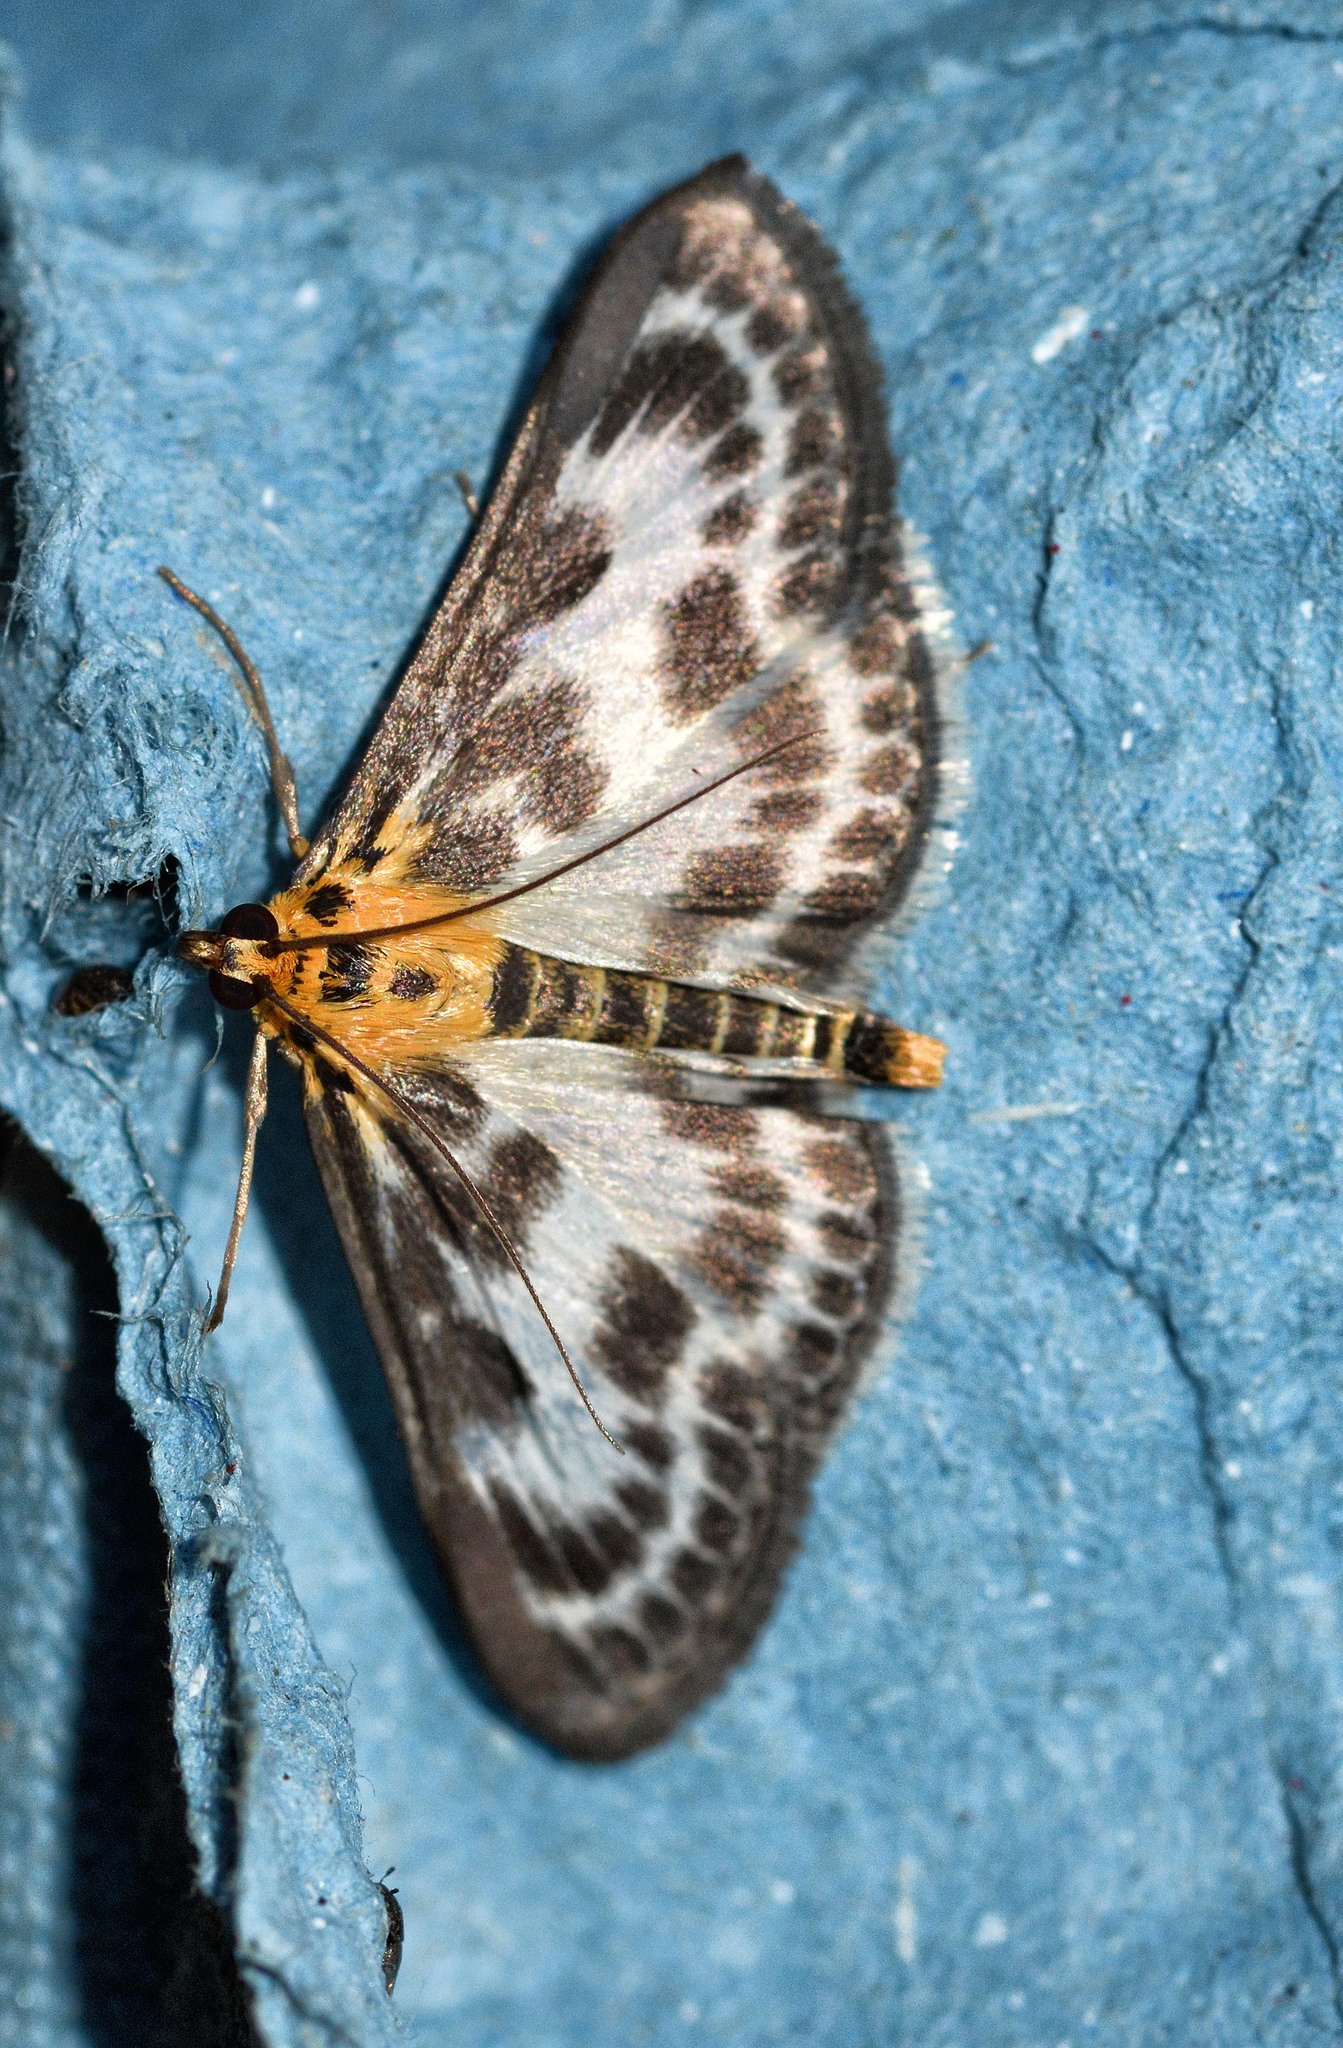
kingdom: Animalia
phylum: Arthropoda
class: Insecta
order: Lepidoptera
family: Crambidae
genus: Anania
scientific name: Anania hortulata
